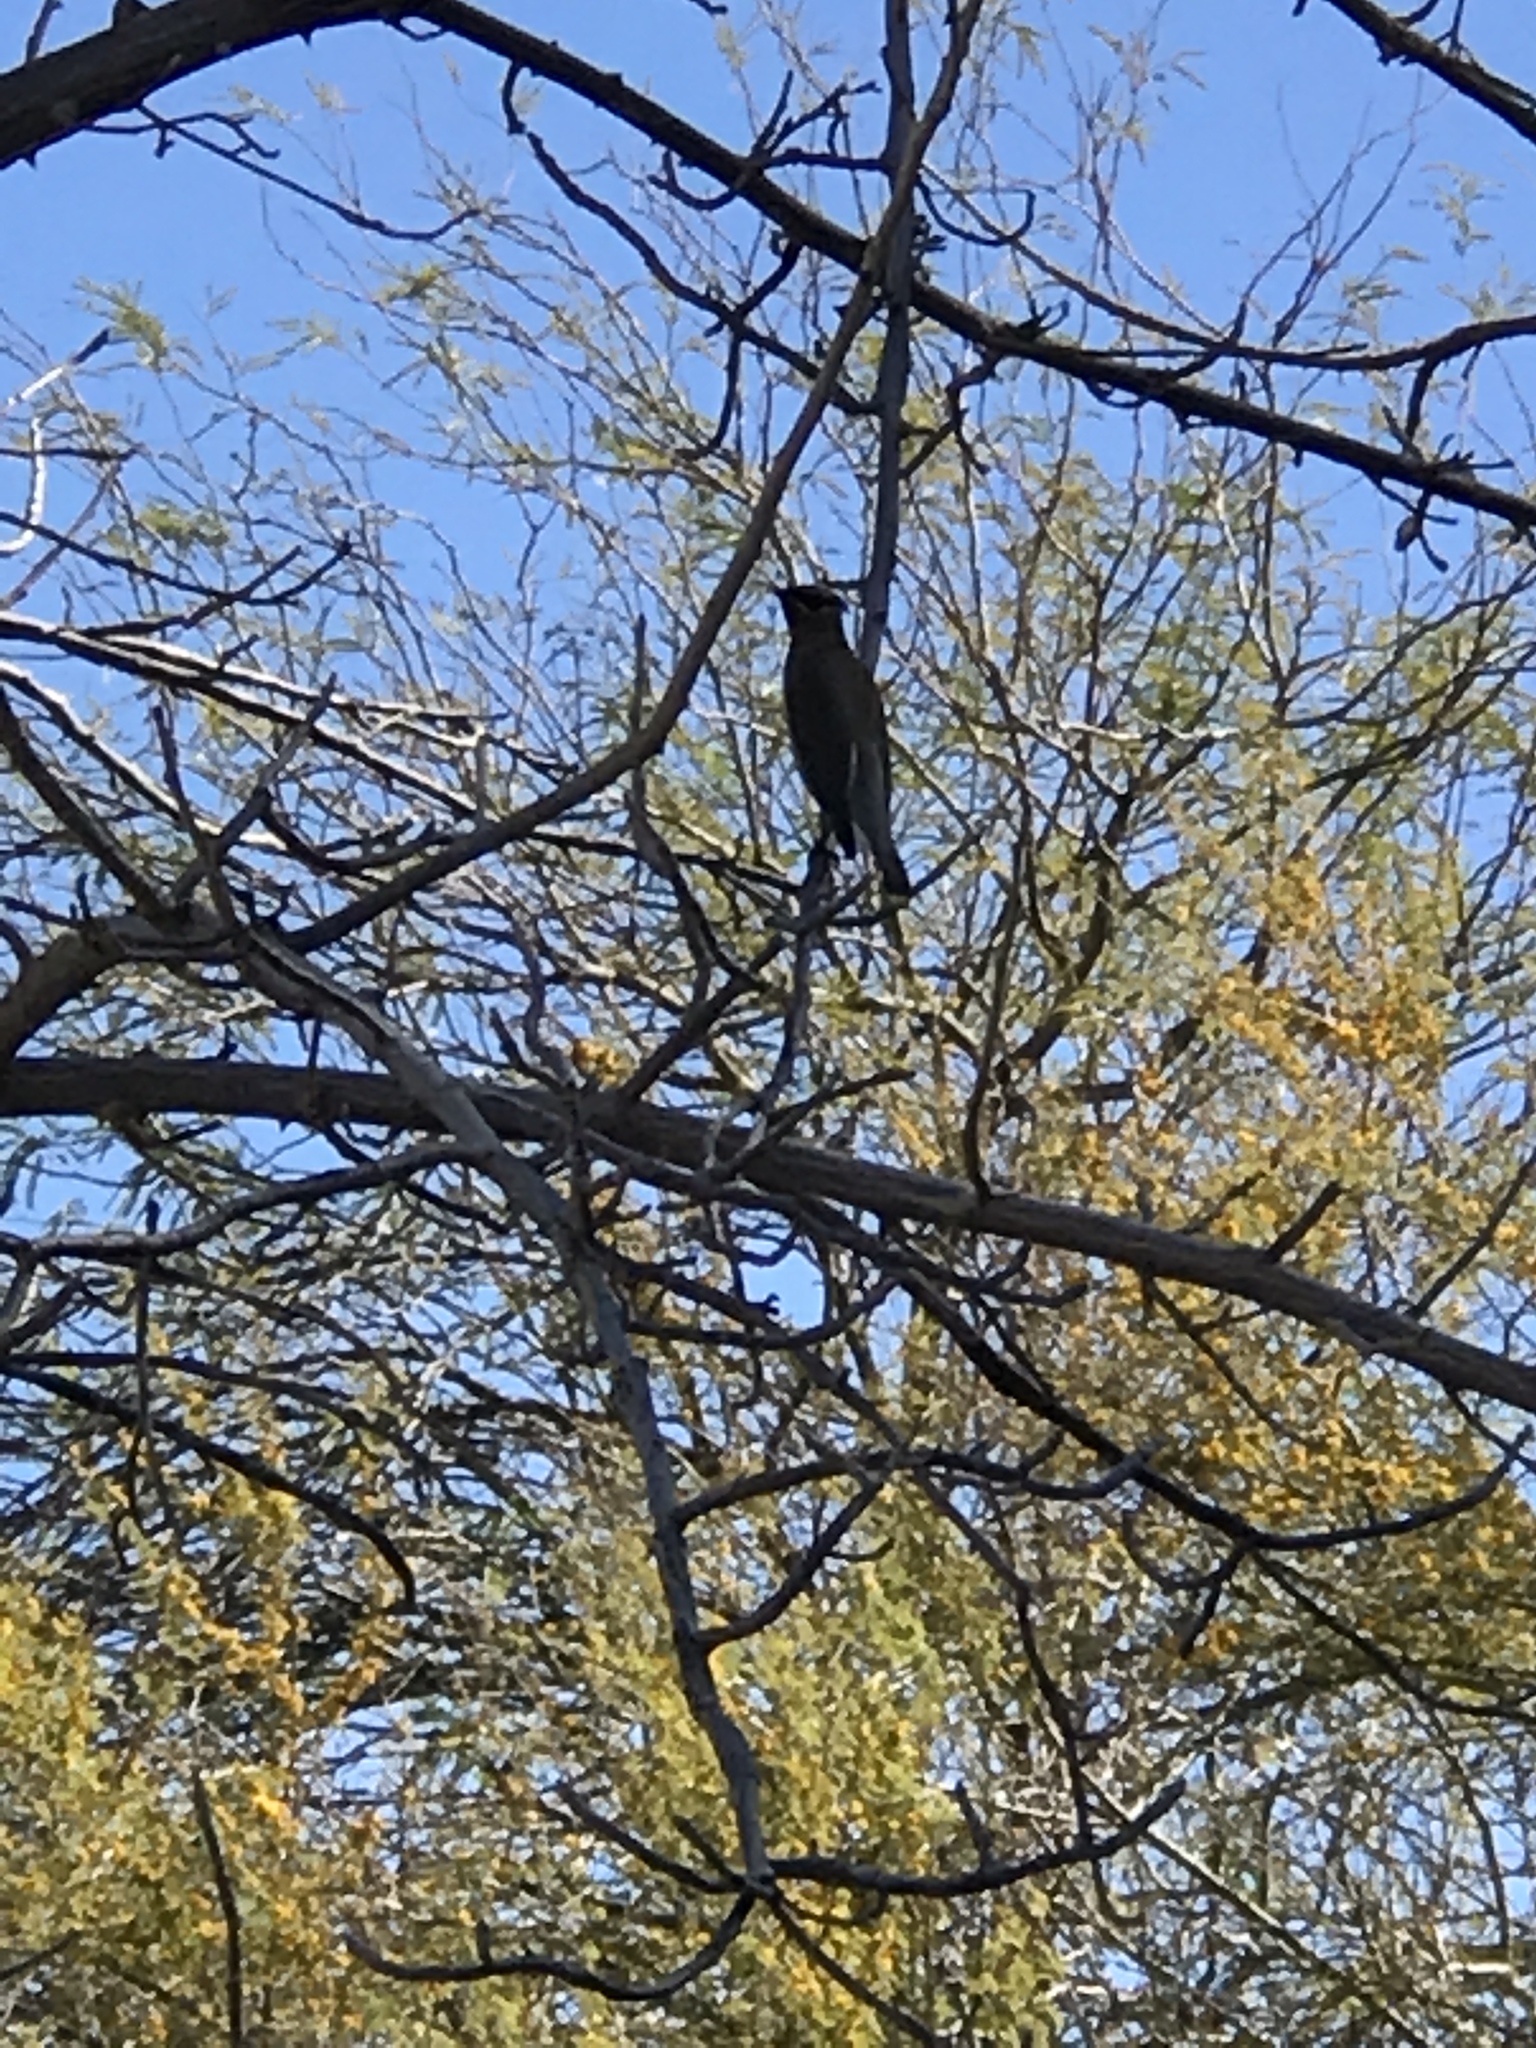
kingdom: Animalia
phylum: Chordata
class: Aves
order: Passeriformes
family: Bombycillidae
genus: Bombycilla
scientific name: Bombycilla cedrorum
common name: Cedar waxwing
